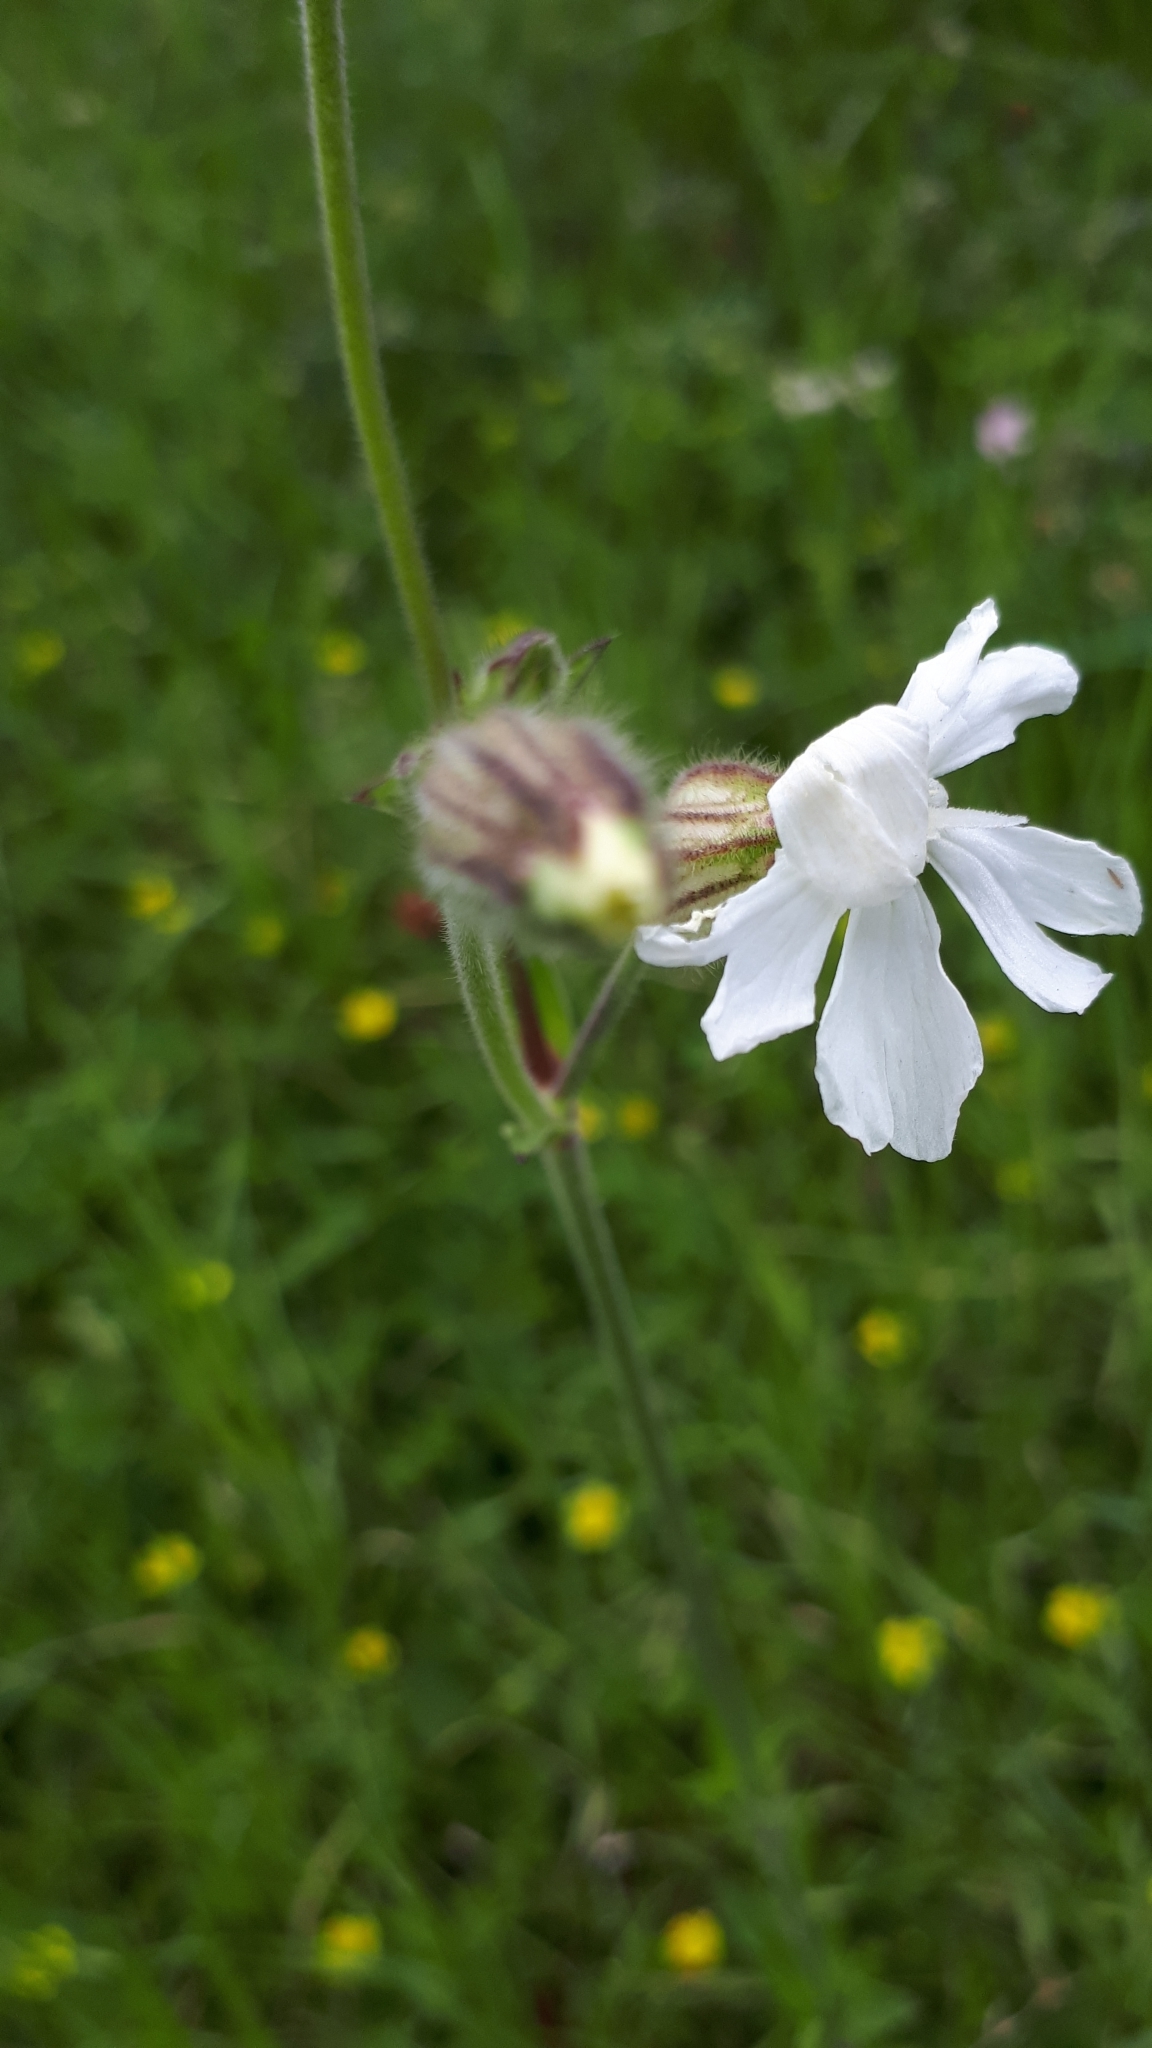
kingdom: Plantae
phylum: Tracheophyta
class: Magnoliopsida
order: Caryophyllales
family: Caryophyllaceae
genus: Silene
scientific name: Silene latifolia
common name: White campion
